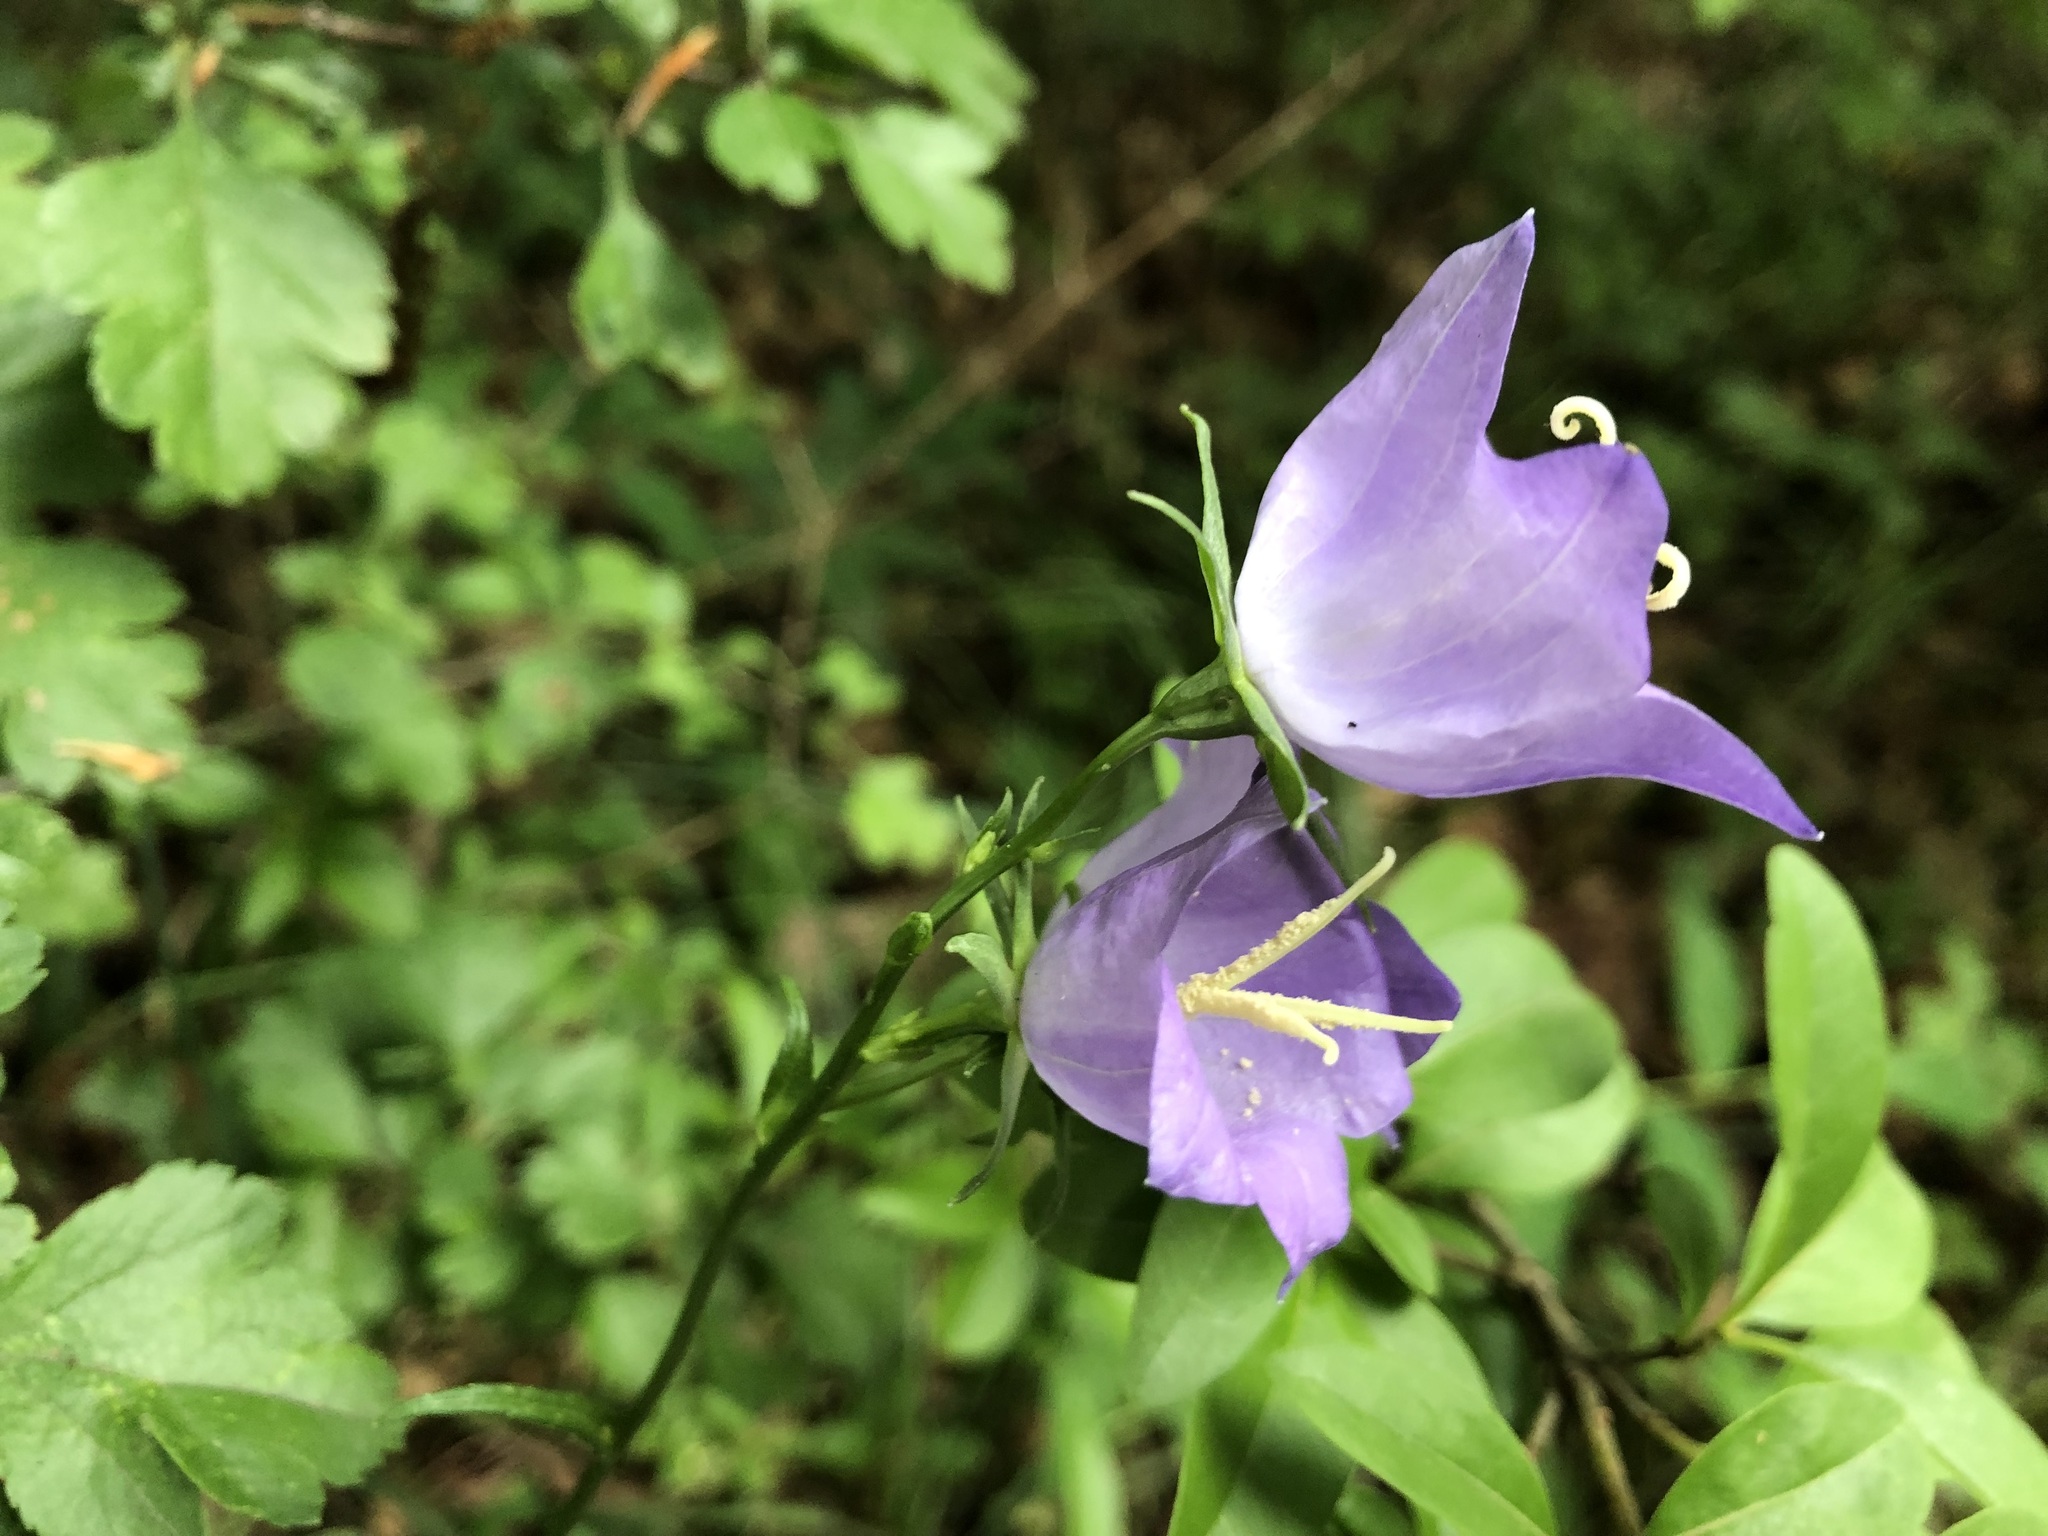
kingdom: Plantae
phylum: Tracheophyta
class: Magnoliopsida
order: Asterales
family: Campanulaceae
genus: Campanula
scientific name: Campanula persicifolia
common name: Peach-leaved bellflower
